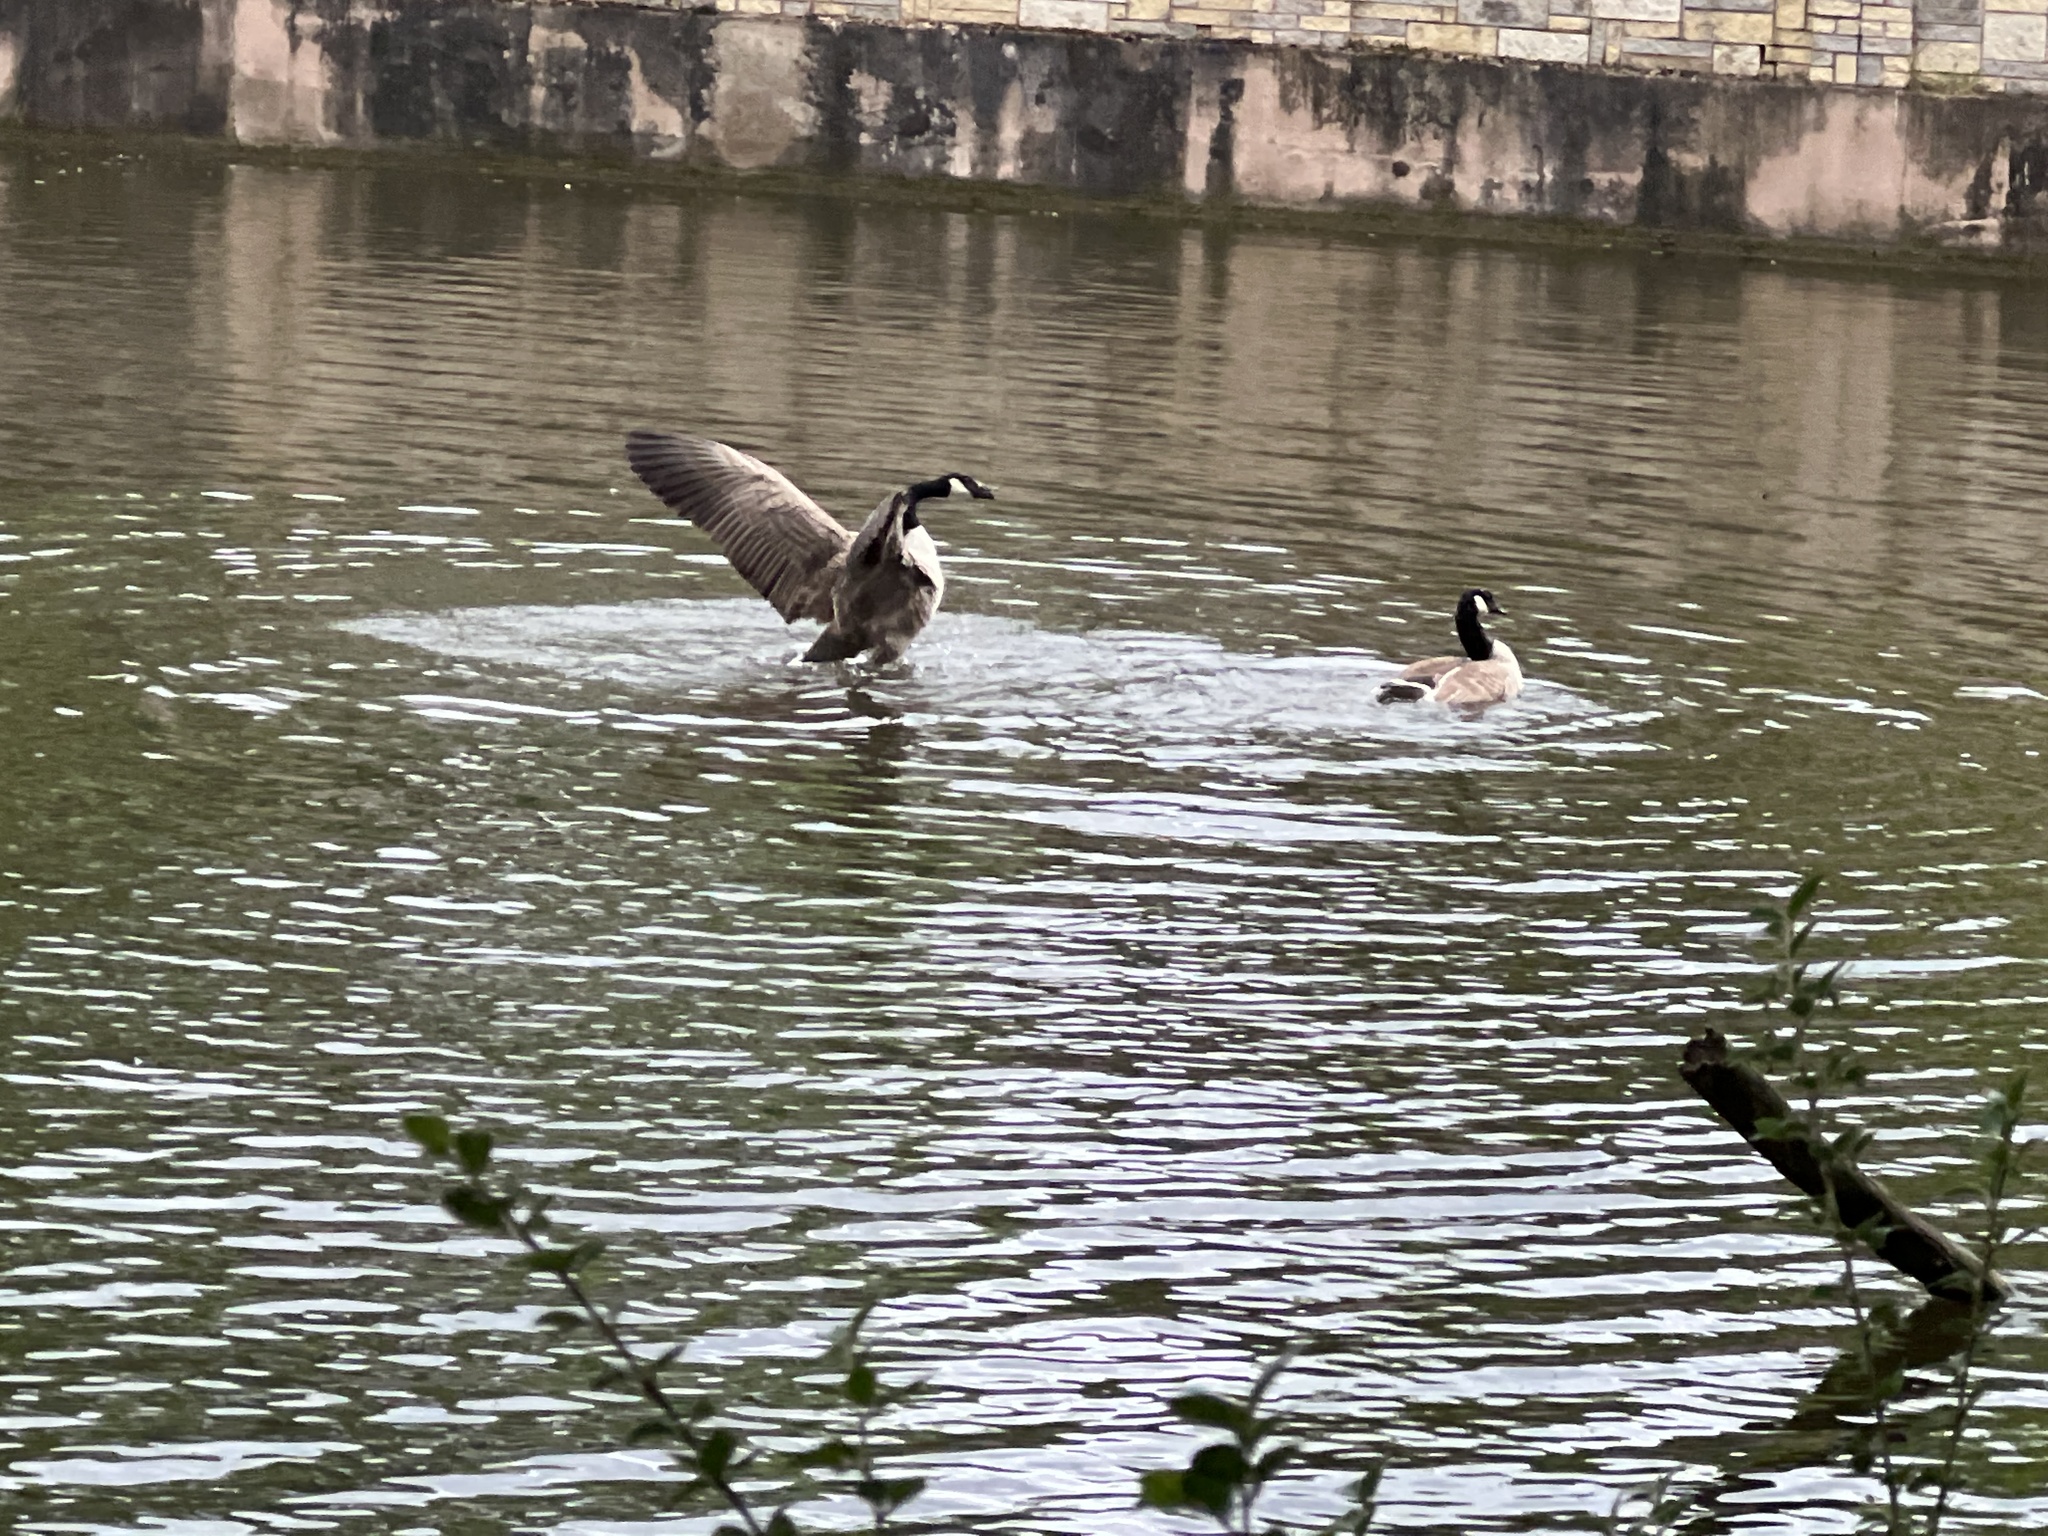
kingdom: Animalia
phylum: Chordata
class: Aves
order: Anseriformes
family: Anatidae
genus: Branta
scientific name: Branta canadensis
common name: Canada goose
